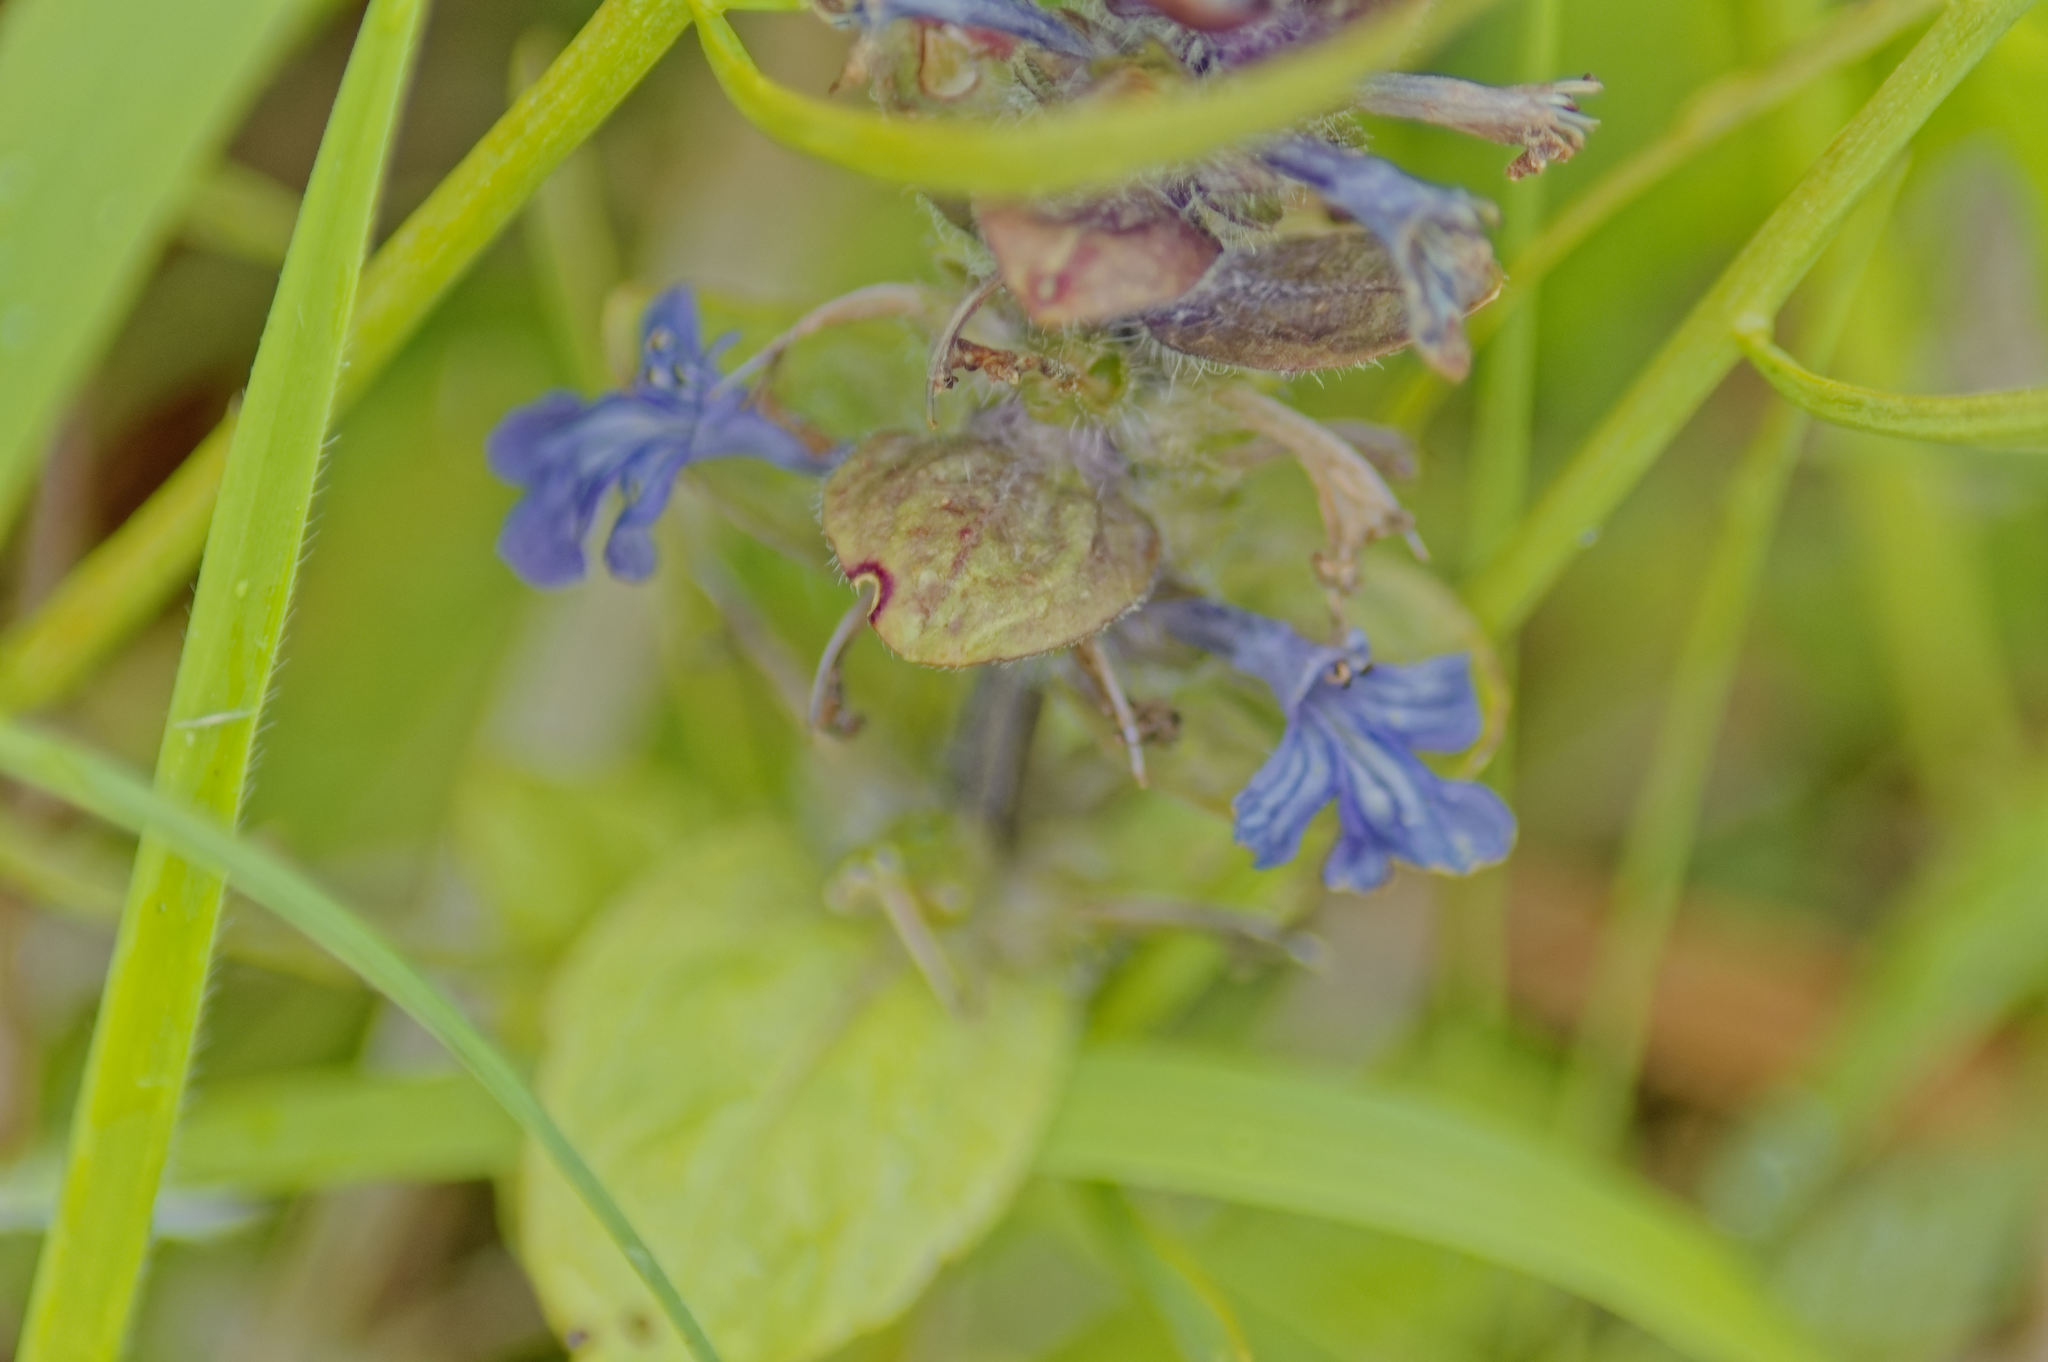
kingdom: Plantae
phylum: Tracheophyta
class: Magnoliopsida
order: Lamiales
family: Lamiaceae
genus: Ajuga
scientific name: Ajuga reptans
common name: Bugle
